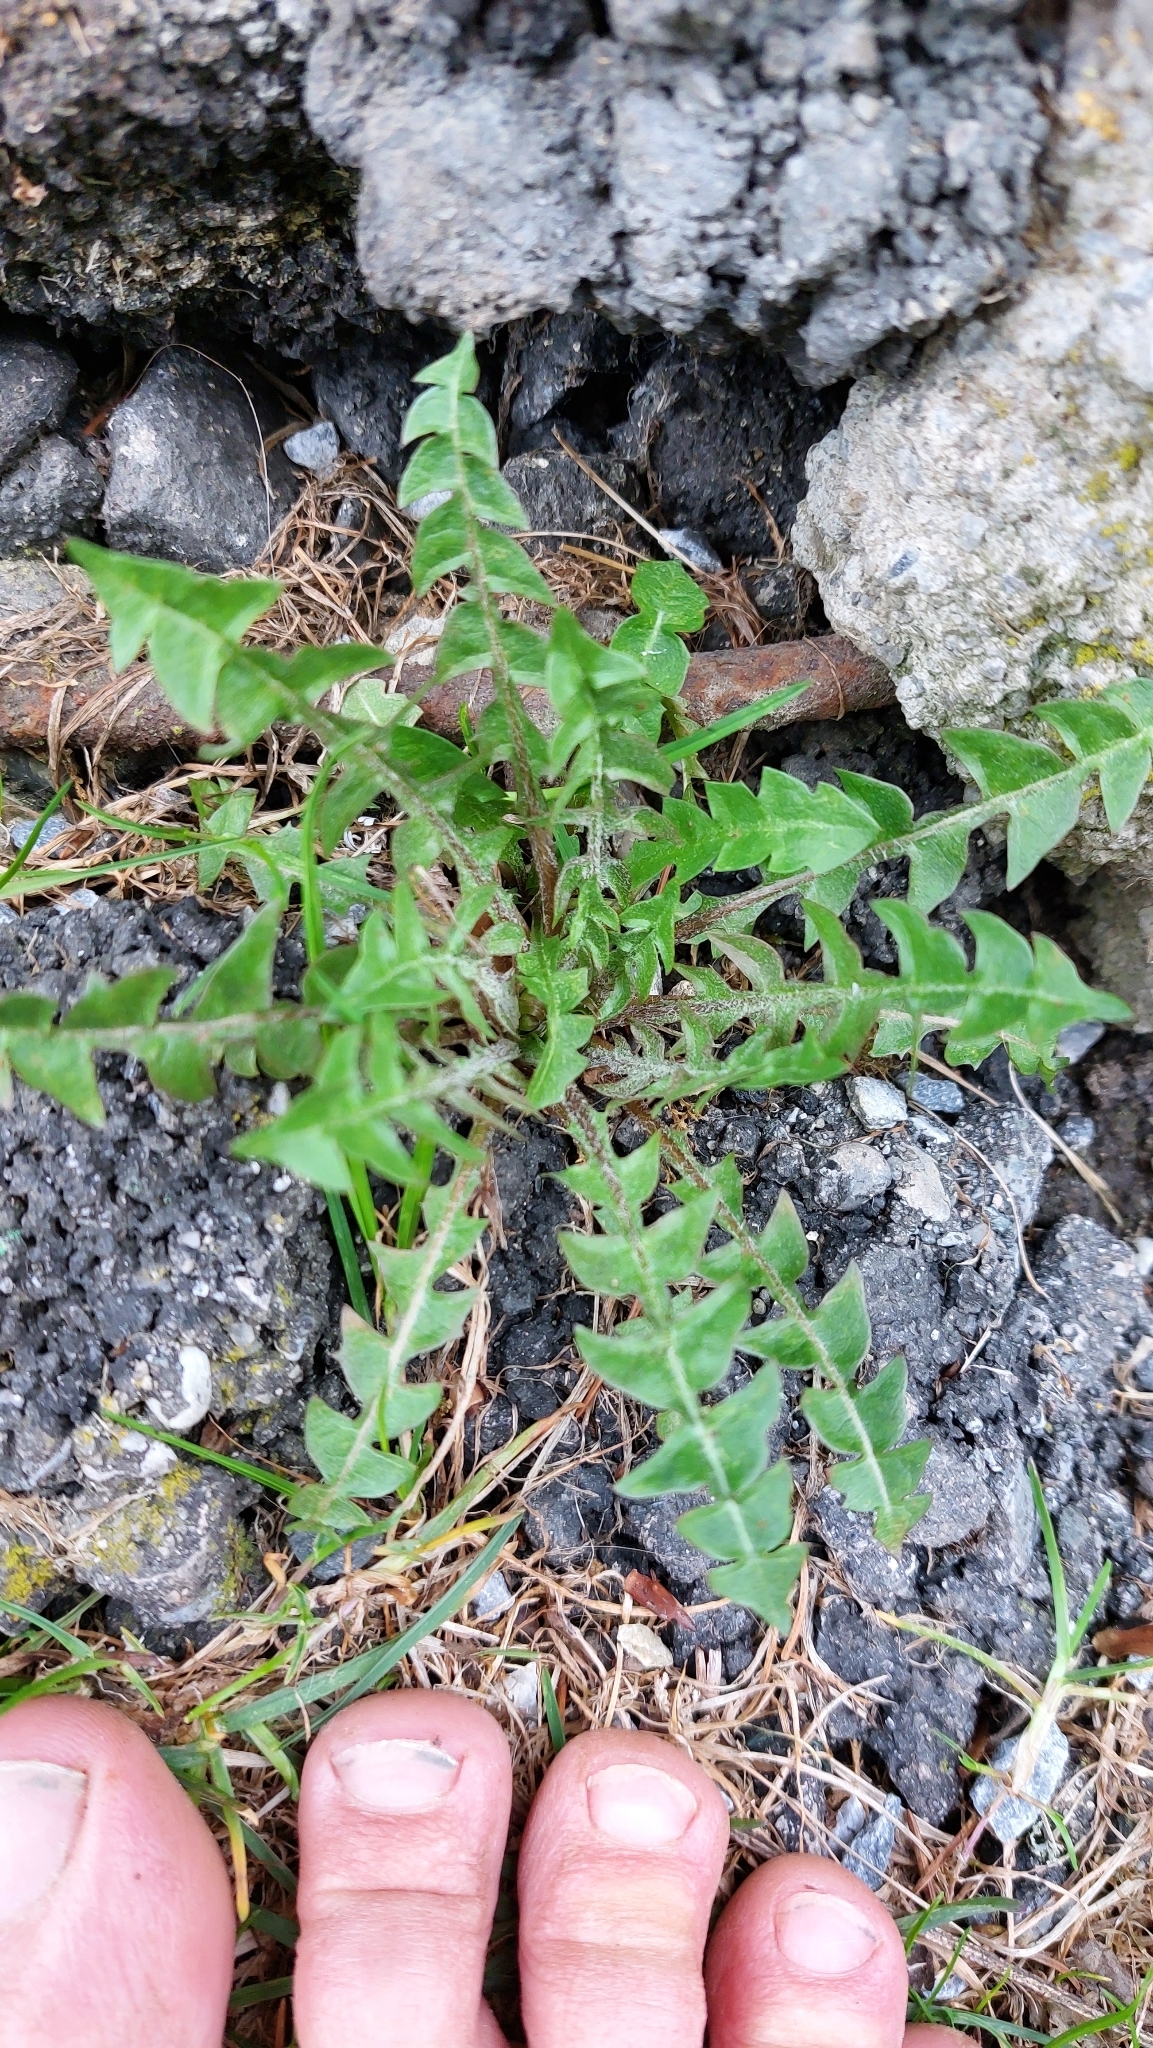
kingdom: Plantae
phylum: Tracheophyta
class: Magnoliopsida
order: Asterales
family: Asteraceae
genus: Taraxacum
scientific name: Taraxacum
